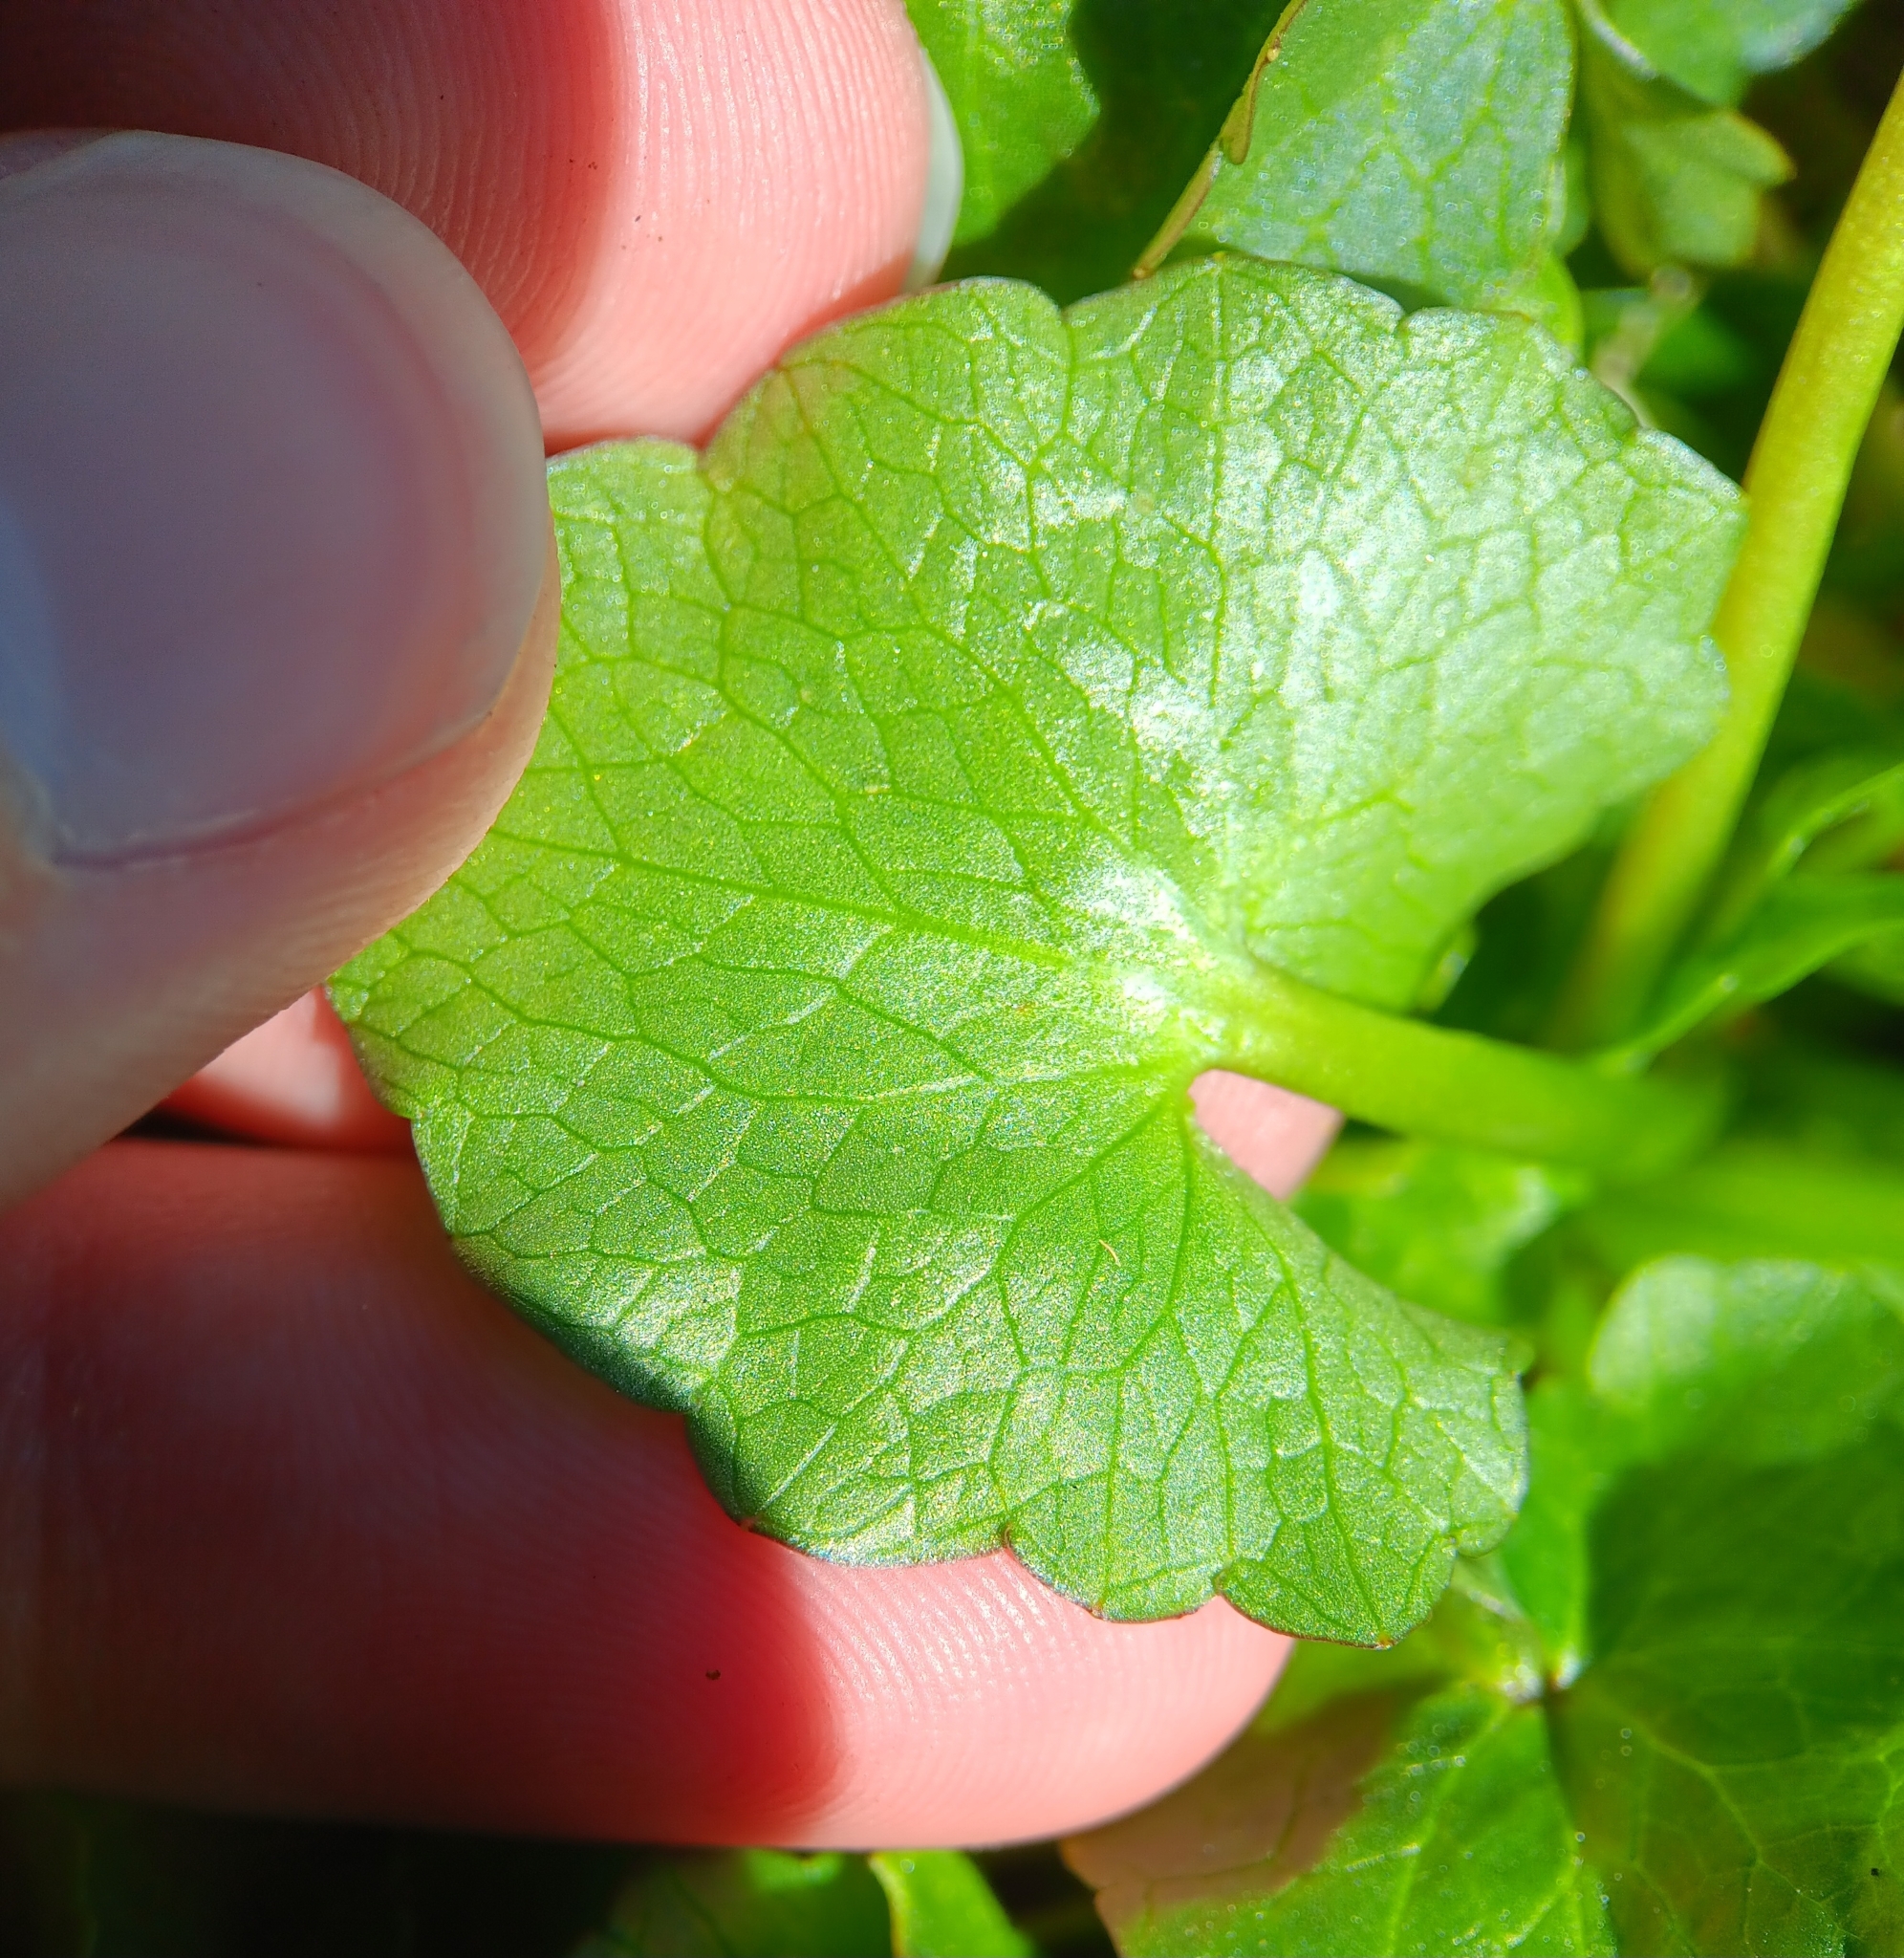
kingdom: Plantae
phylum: Tracheophyta
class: Magnoliopsida
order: Ranunculales
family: Ranunculaceae
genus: Ficaria
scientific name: Ficaria verna
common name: Lesser celandine
